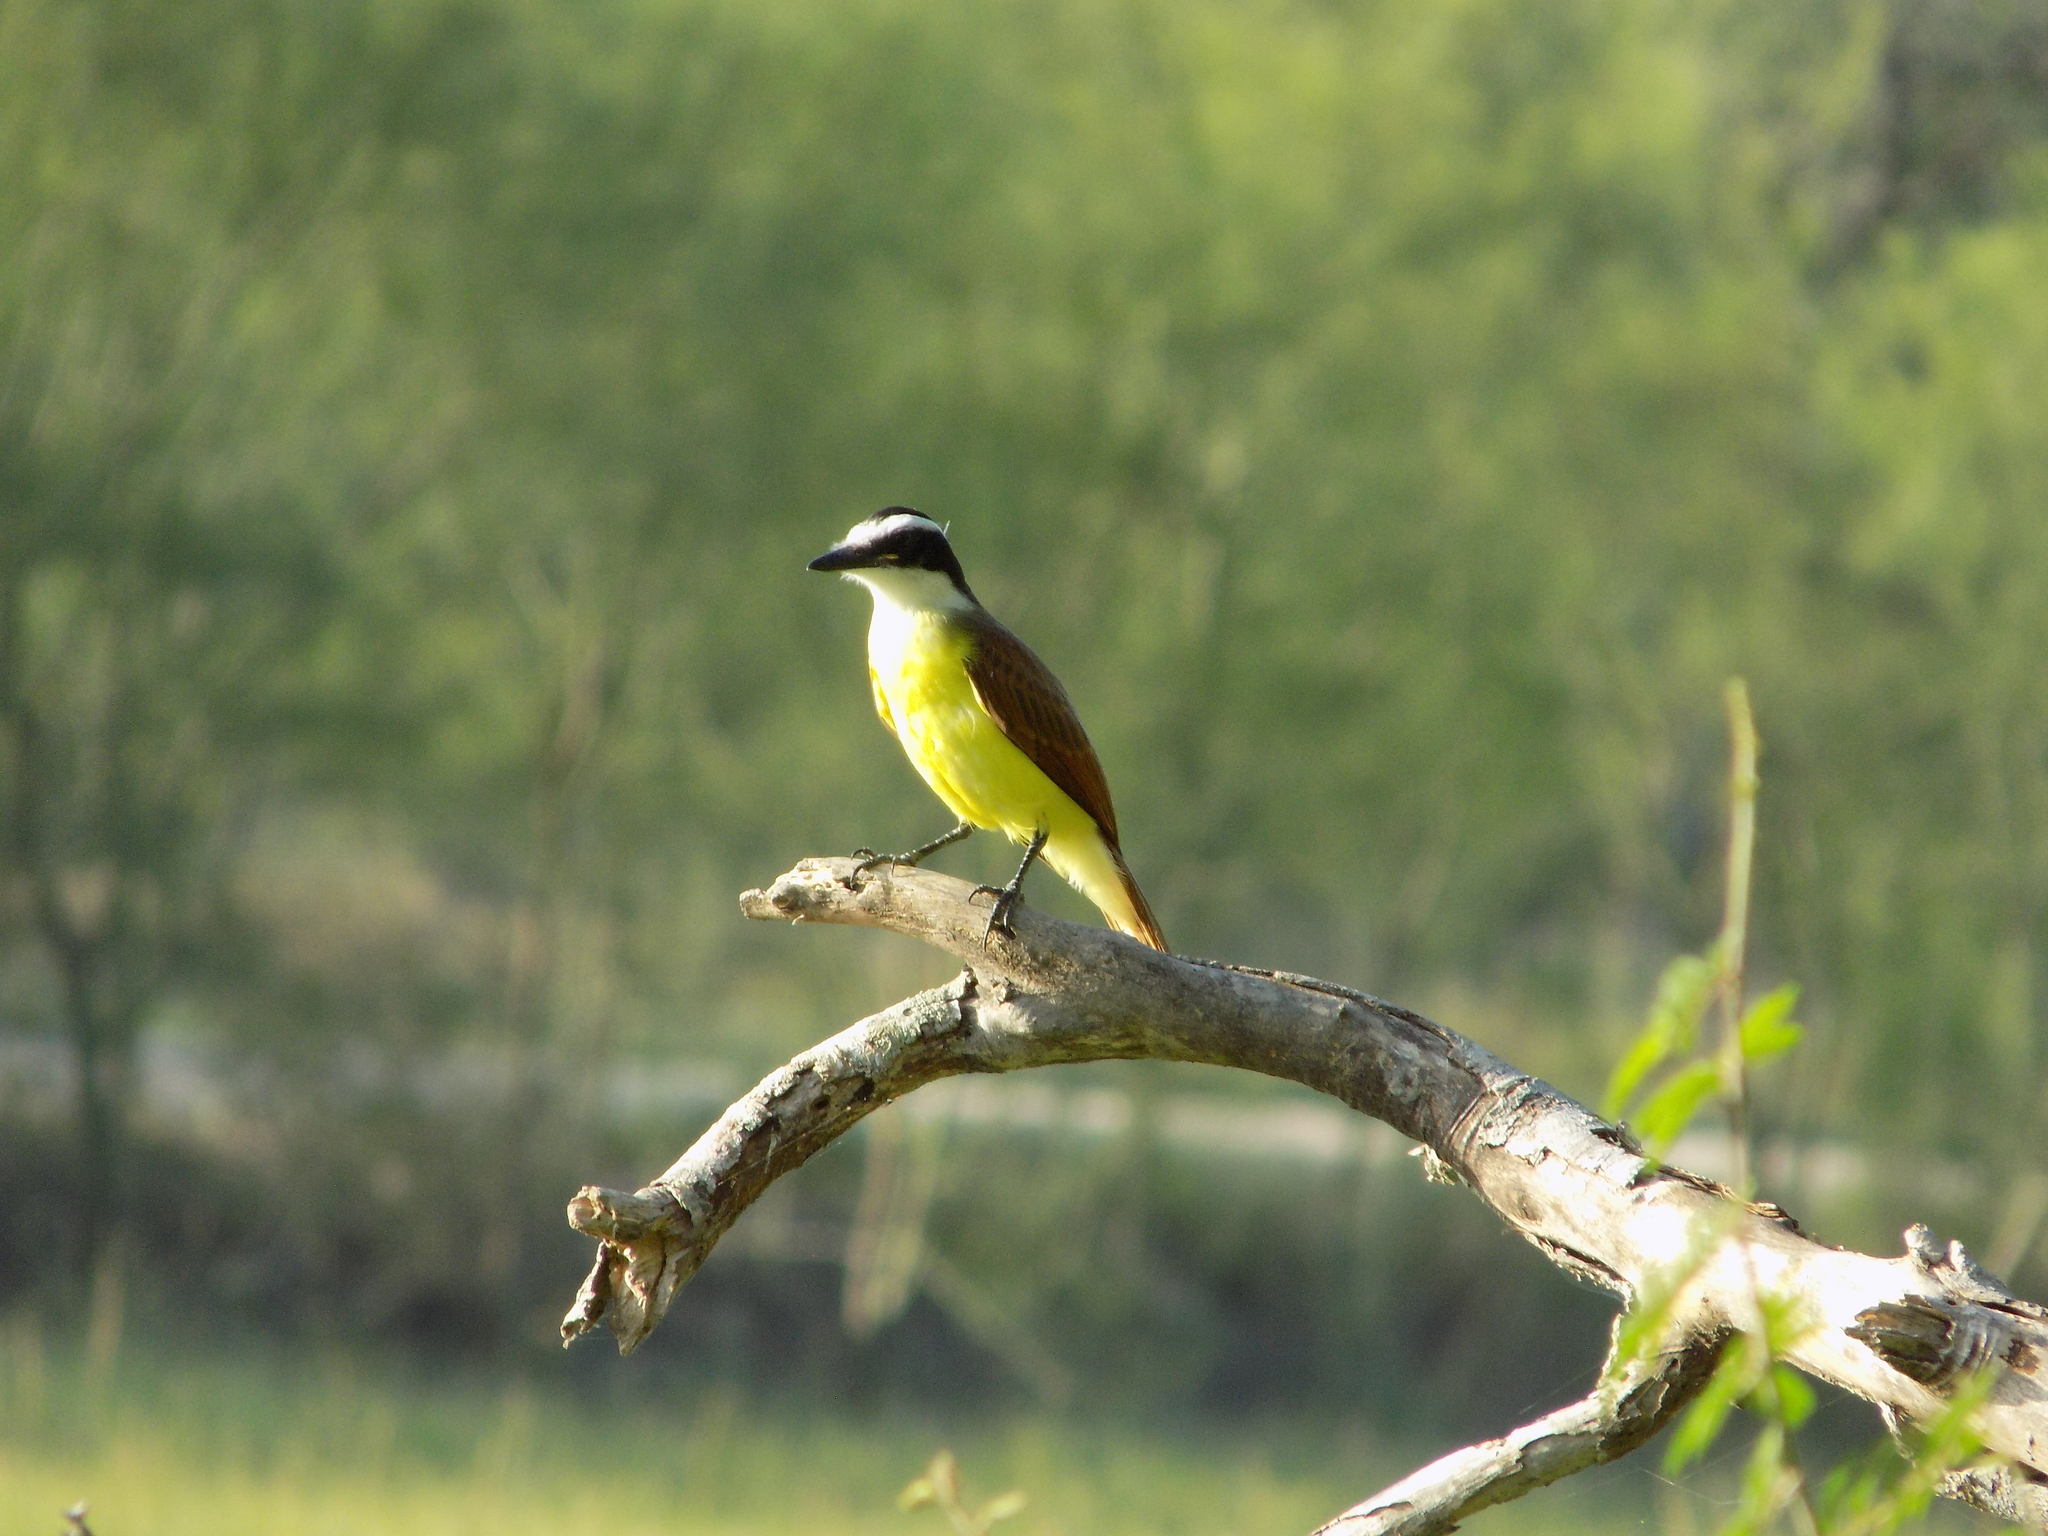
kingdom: Animalia
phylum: Chordata
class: Aves
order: Passeriformes
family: Tyrannidae
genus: Pitangus
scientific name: Pitangus sulphuratus
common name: Great kiskadee
